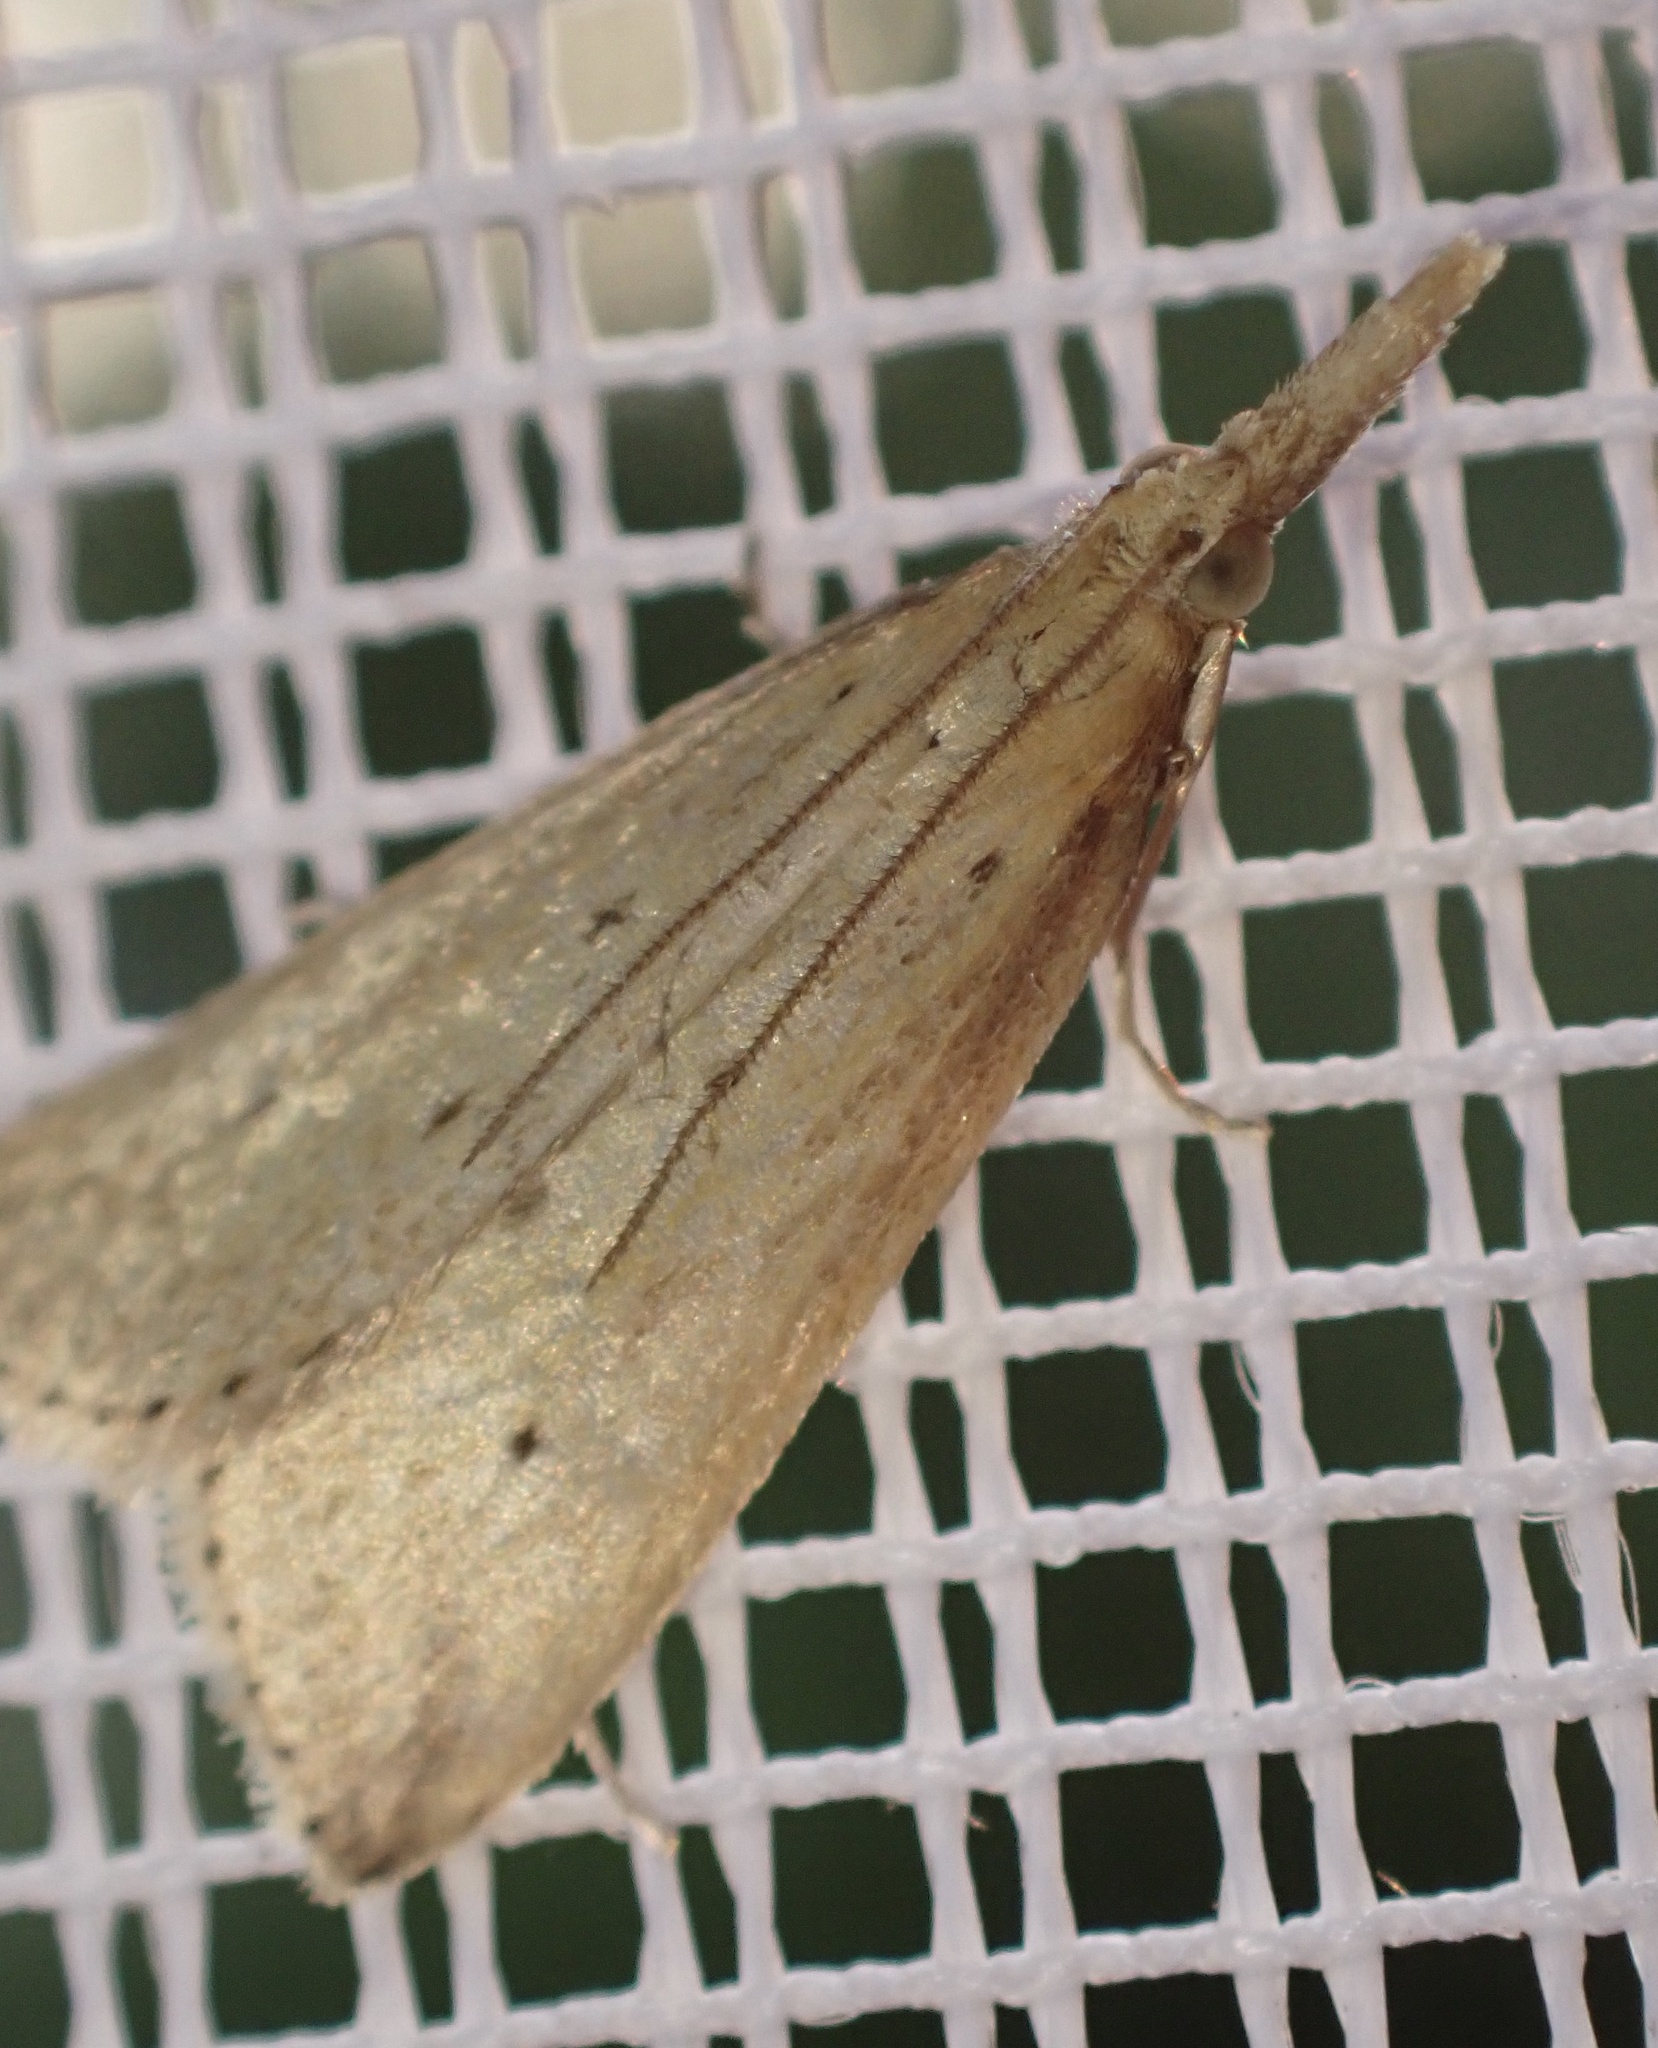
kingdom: Animalia
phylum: Arthropoda
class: Insecta
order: Lepidoptera
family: Crambidae
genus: Donacaula
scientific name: Donacaula forficella
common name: Pale water-veneer
